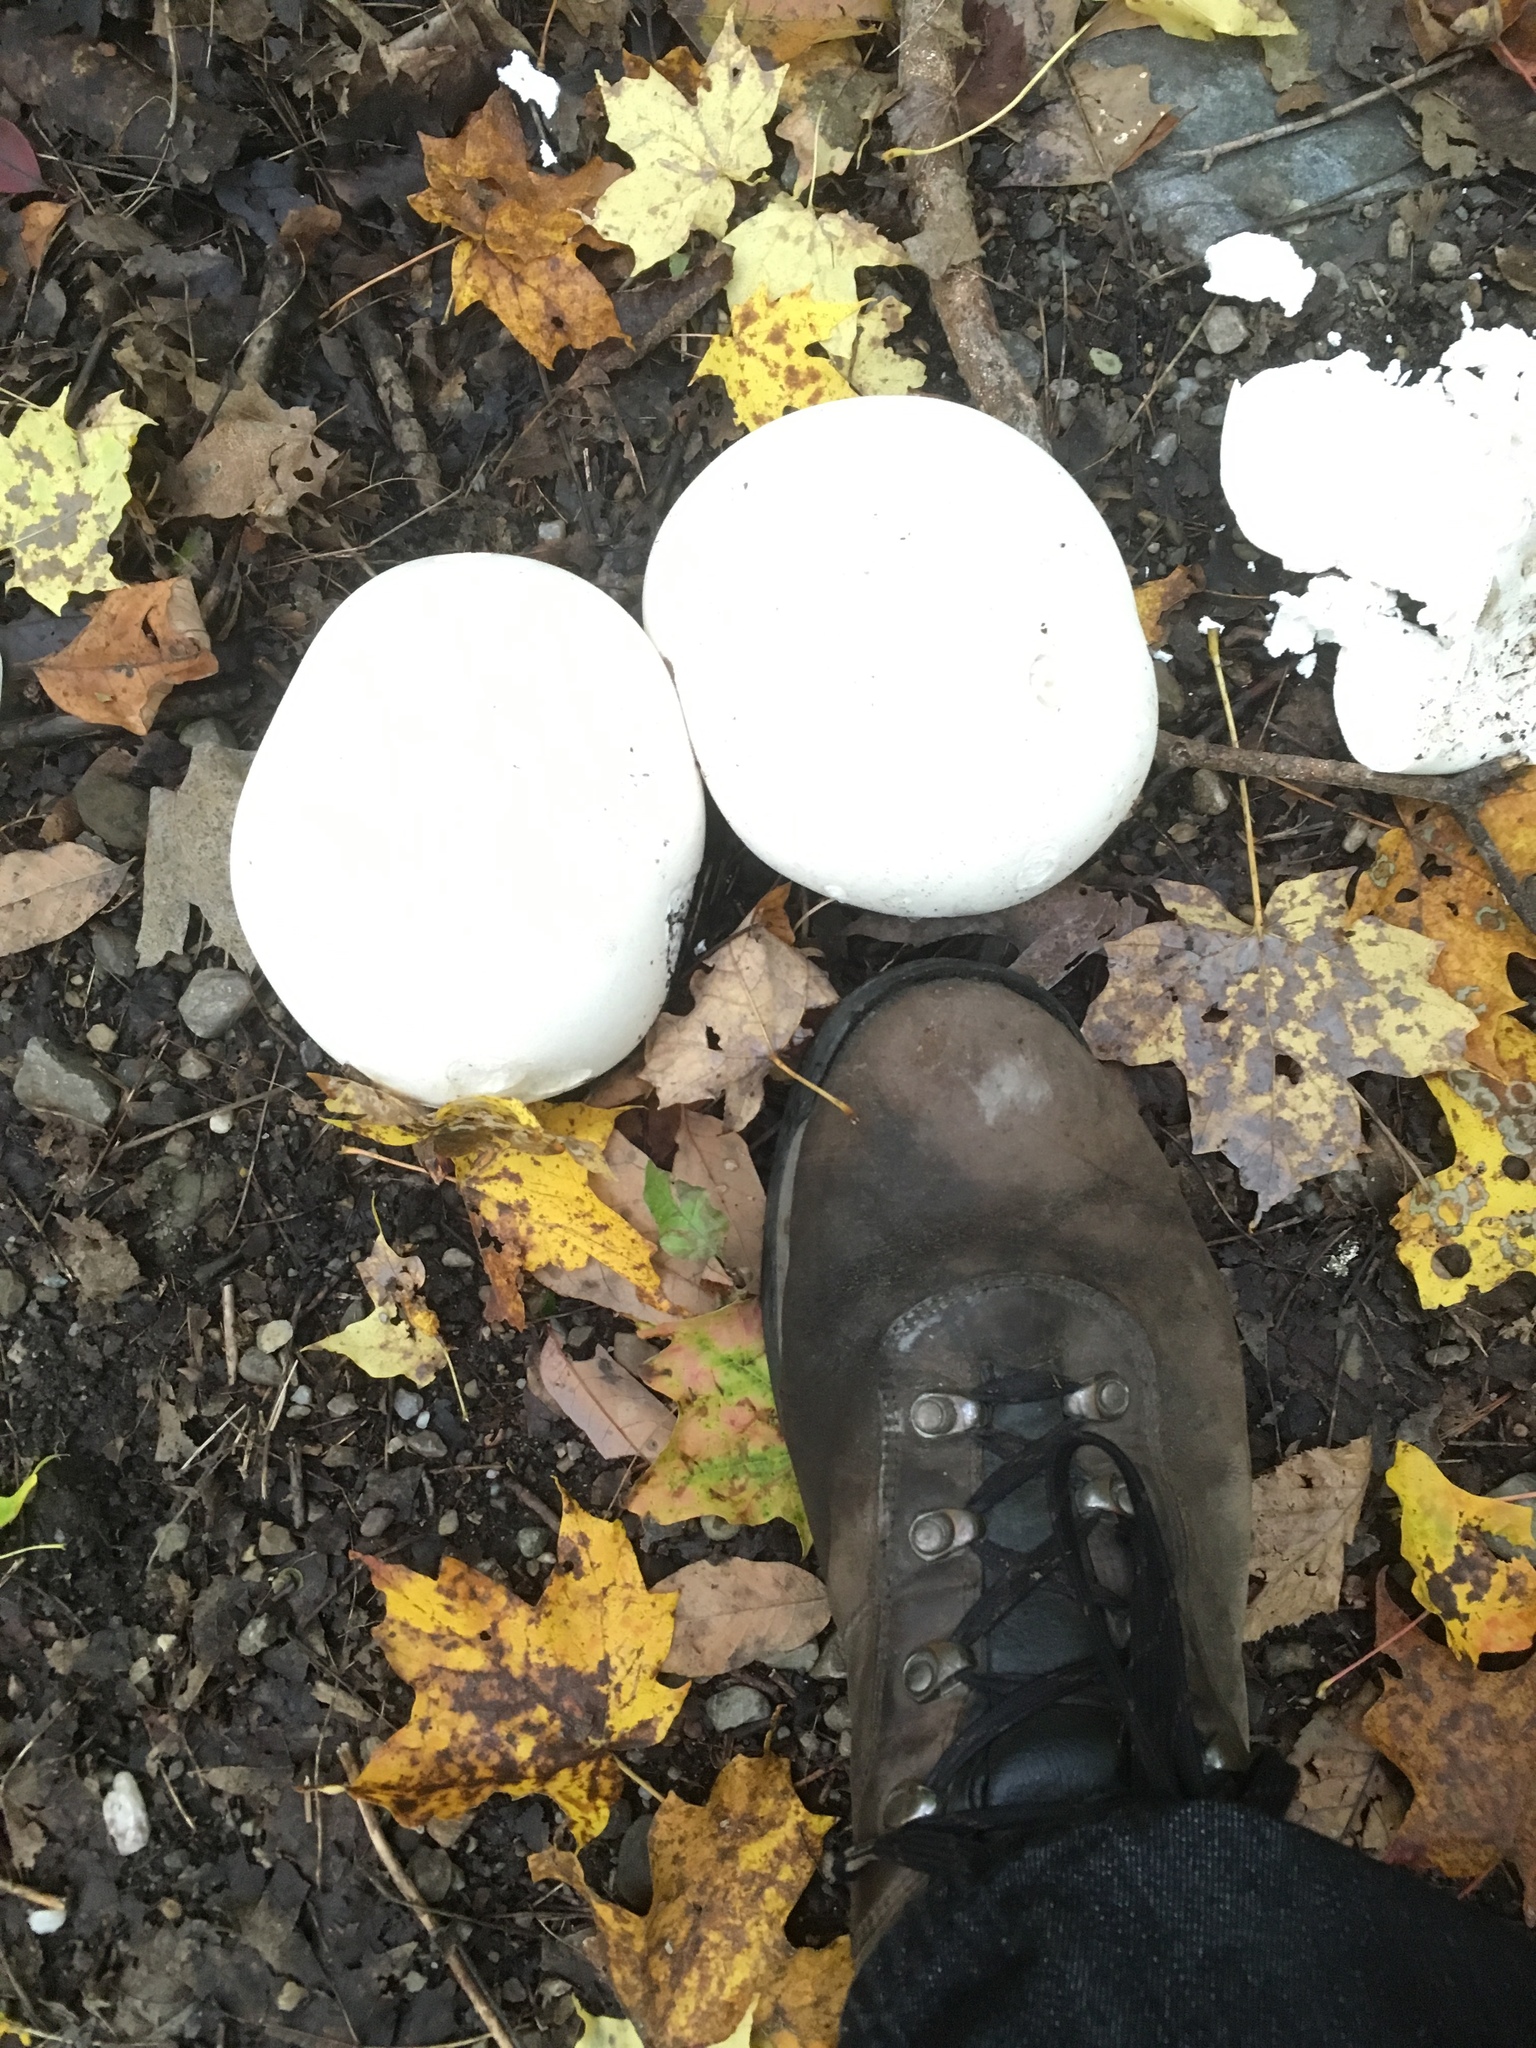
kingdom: Fungi
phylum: Basidiomycota
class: Agaricomycetes
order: Agaricales
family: Lycoperdaceae
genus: Calvatia
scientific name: Calvatia gigantea
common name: Giant puffball
